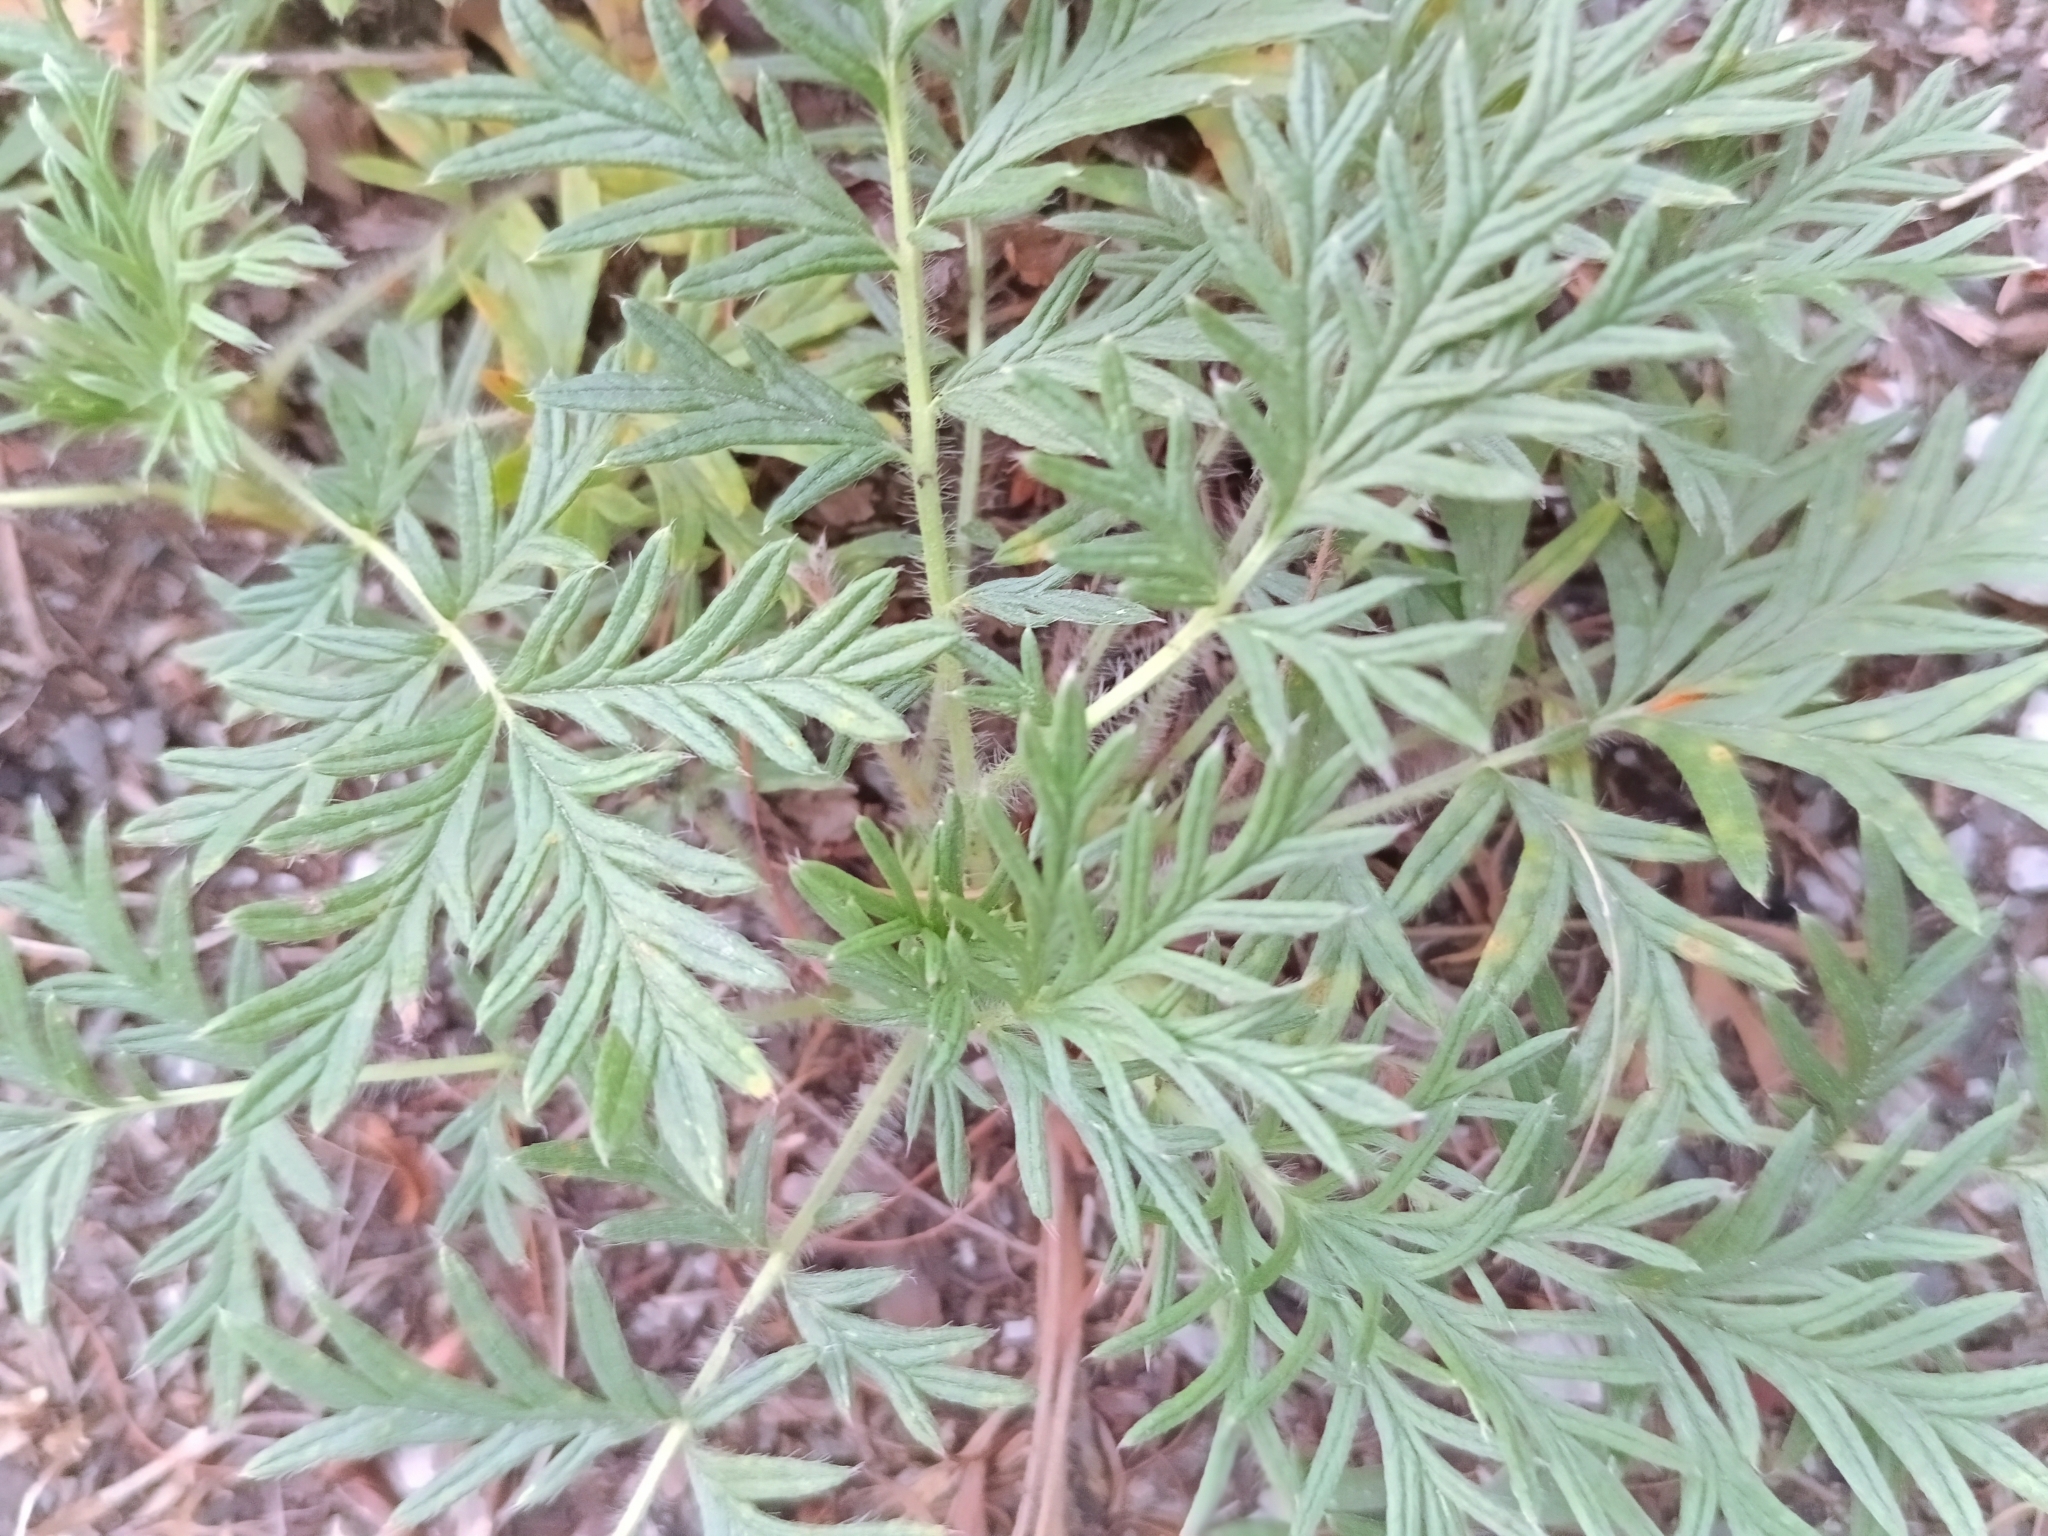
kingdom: Plantae
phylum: Tracheophyta
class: Magnoliopsida
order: Rosales
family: Rosaceae
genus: Potentilla
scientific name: Potentilla tergemina
